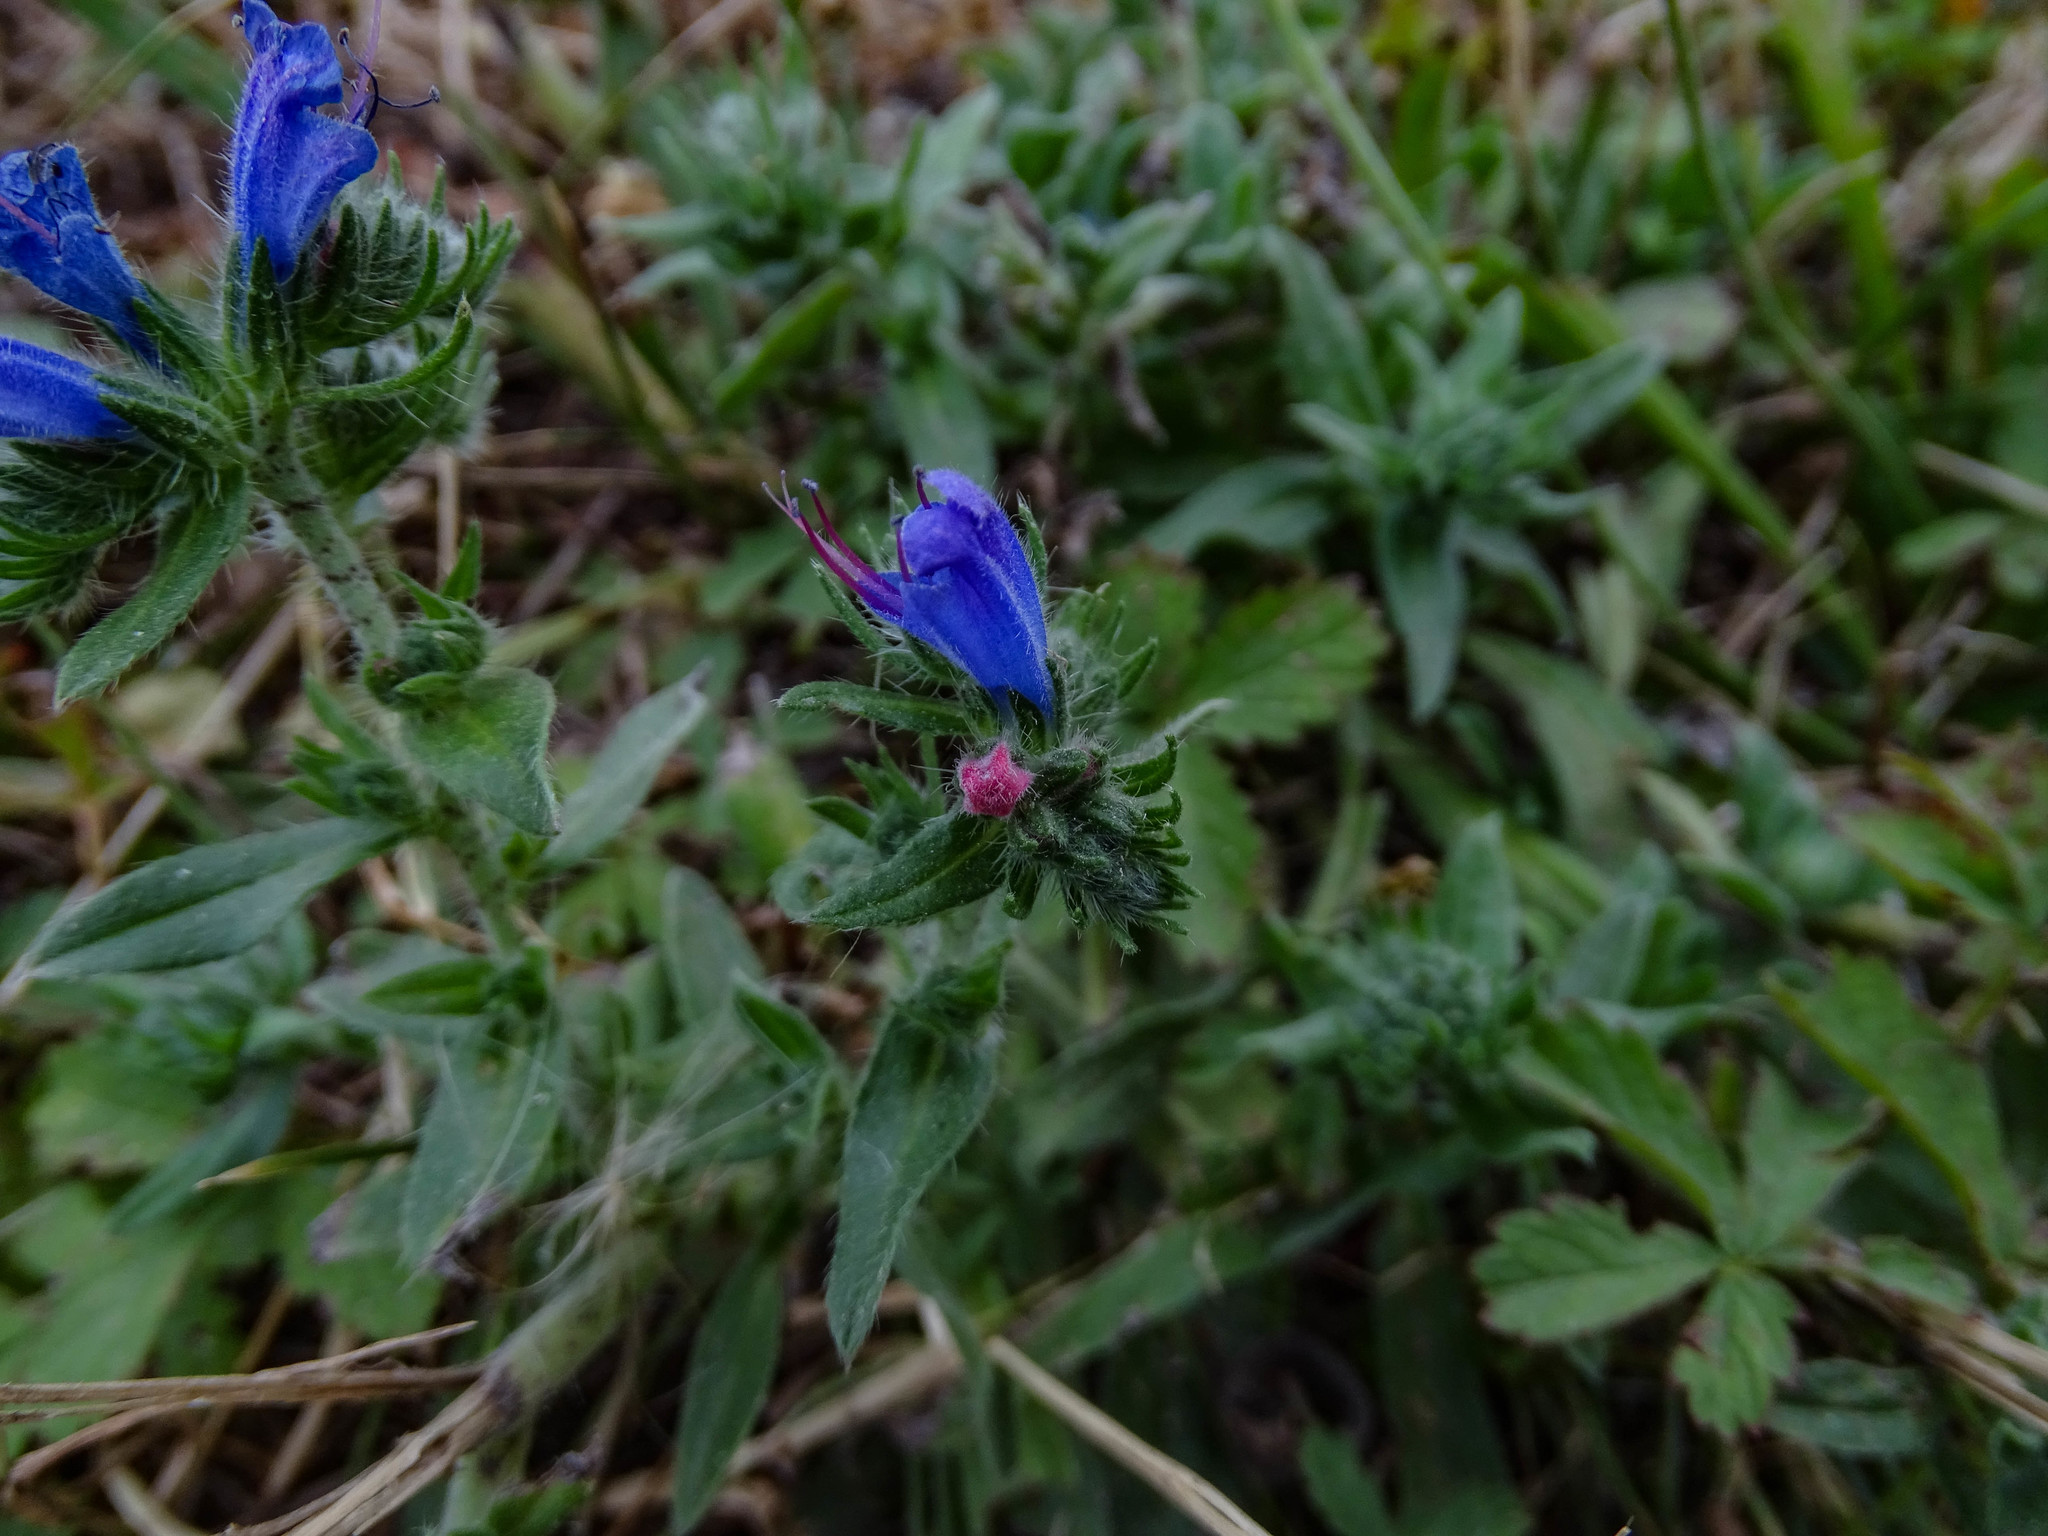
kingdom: Plantae
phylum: Tracheophyta
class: Magnoliopsida
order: Boraginales
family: Boraginaceae
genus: Echium
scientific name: Echium vulgare
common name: Common viper's bugloss
